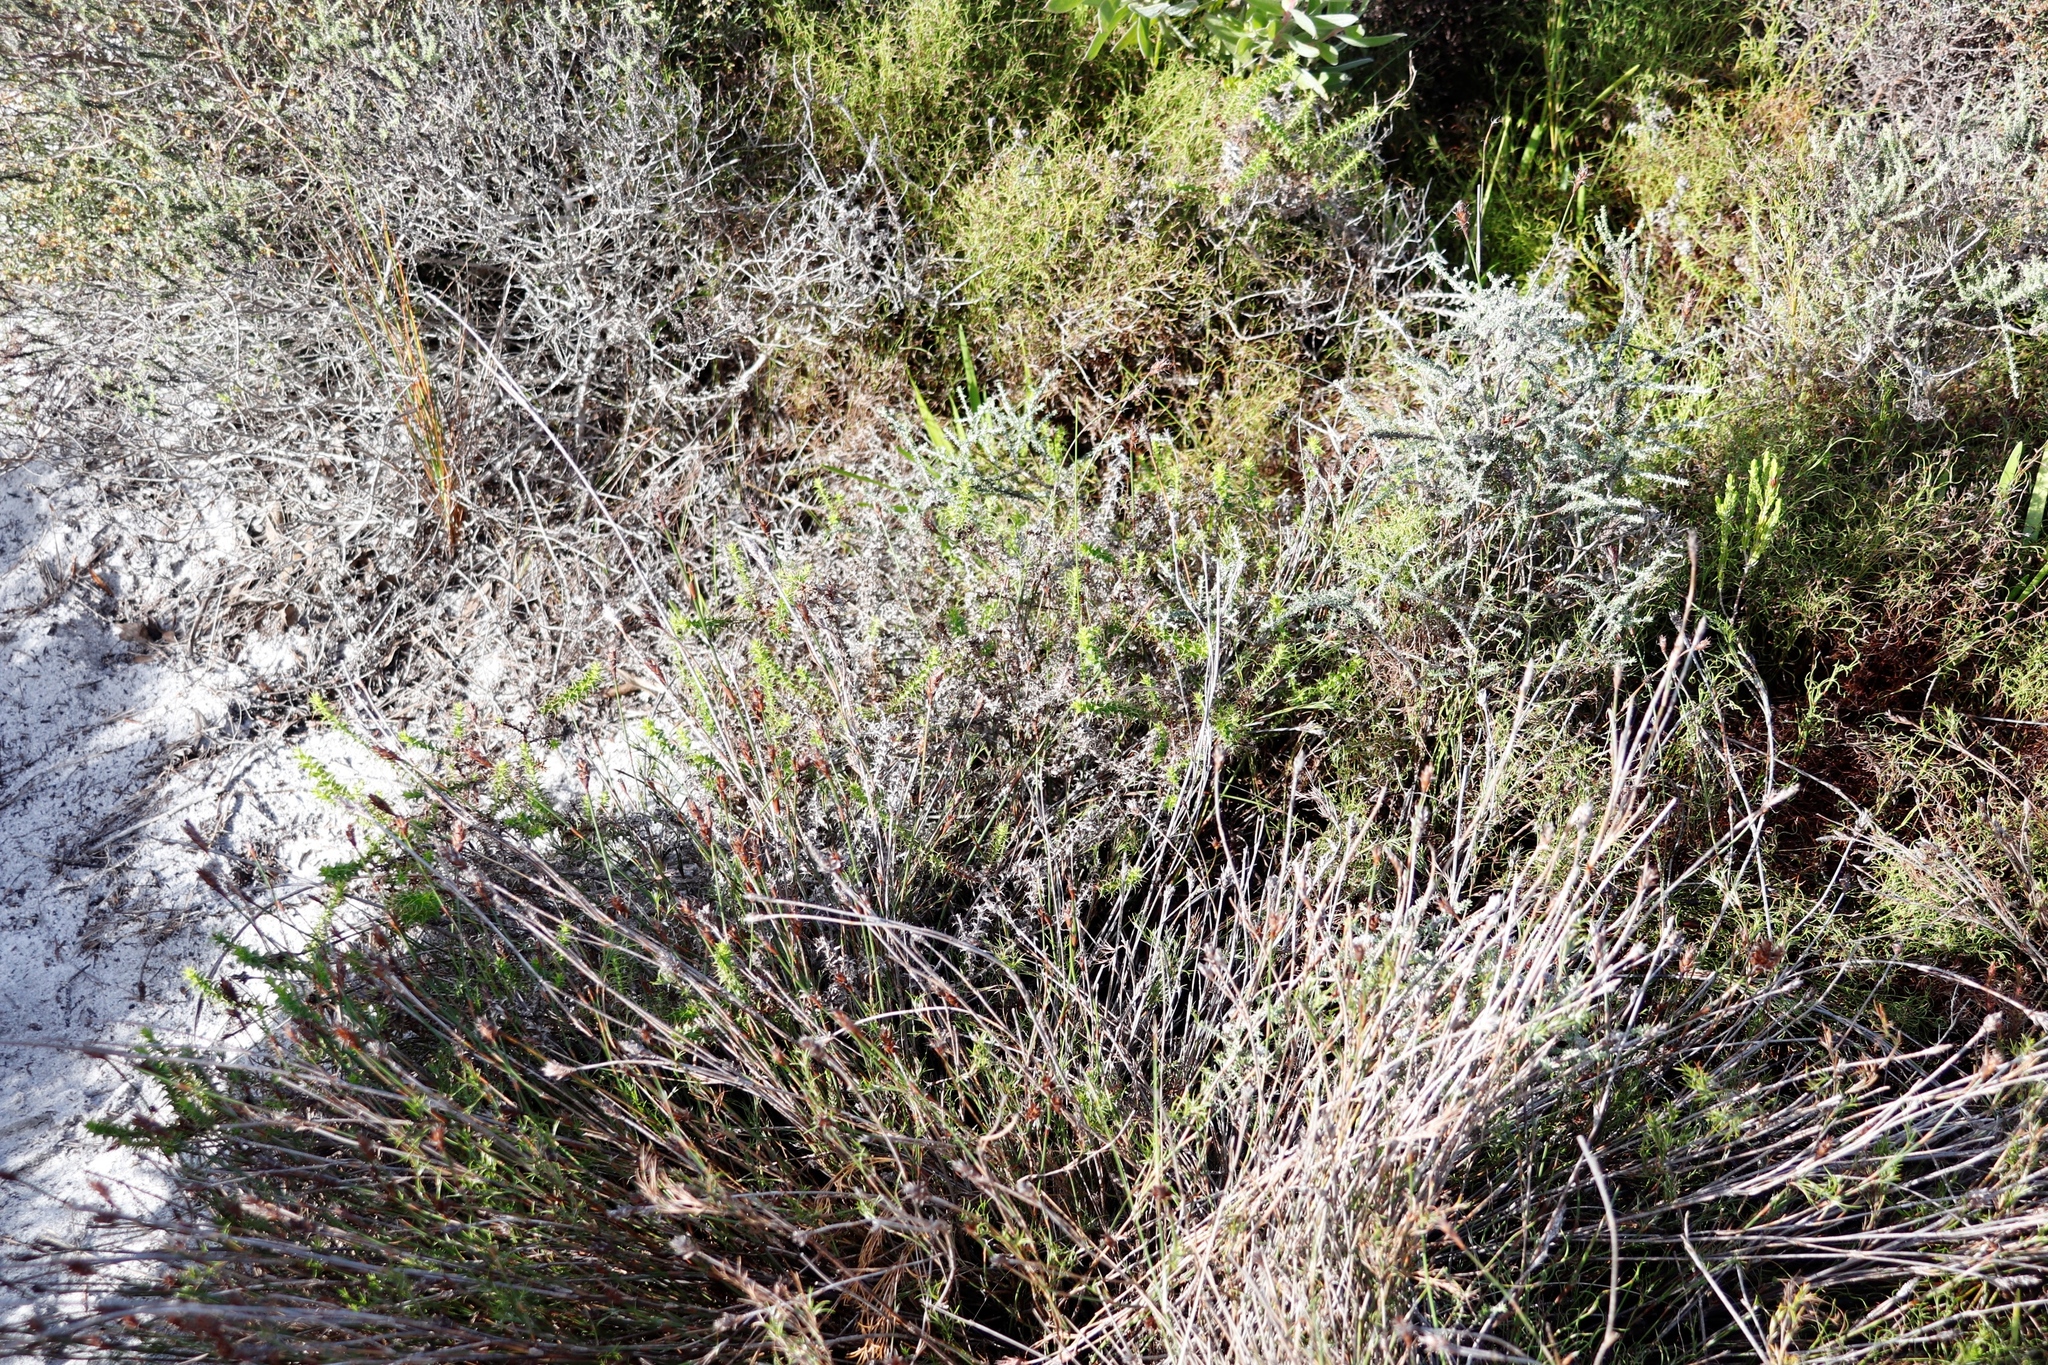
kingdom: Plantae
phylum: Tracheophyta
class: Magnoliopsida
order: Asterales
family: Asteraceae
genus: Cullumia
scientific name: Cullumia setosa
